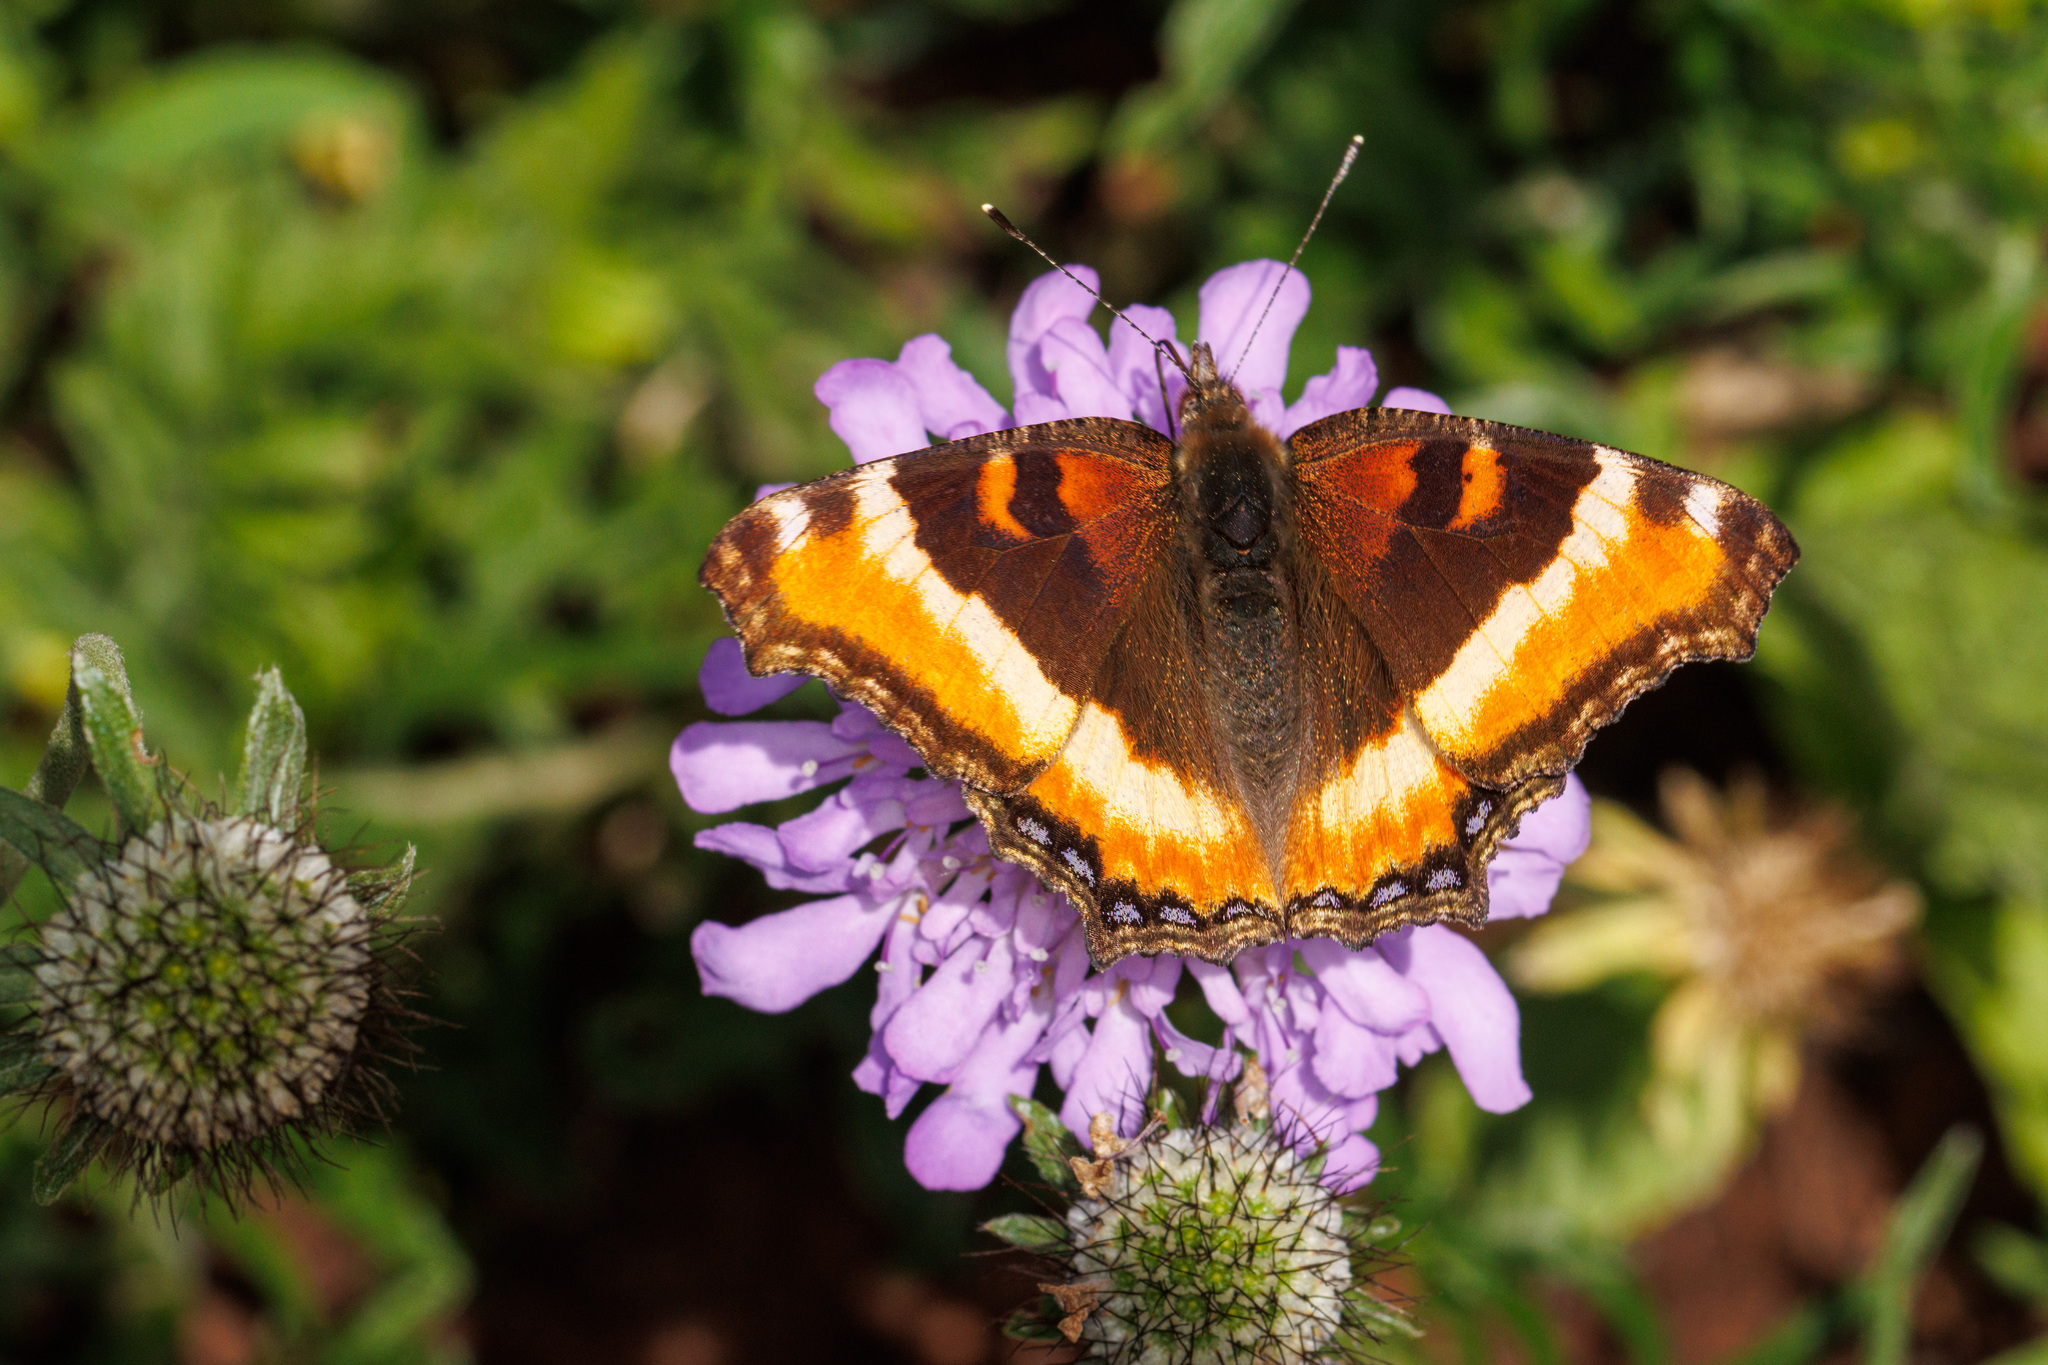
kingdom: Animalia
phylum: Arthropoda
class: Insecta
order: Lepidoptera
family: Nymphalidae
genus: Aglais
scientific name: Aglais milberti
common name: Milbert's tortoiseshell
